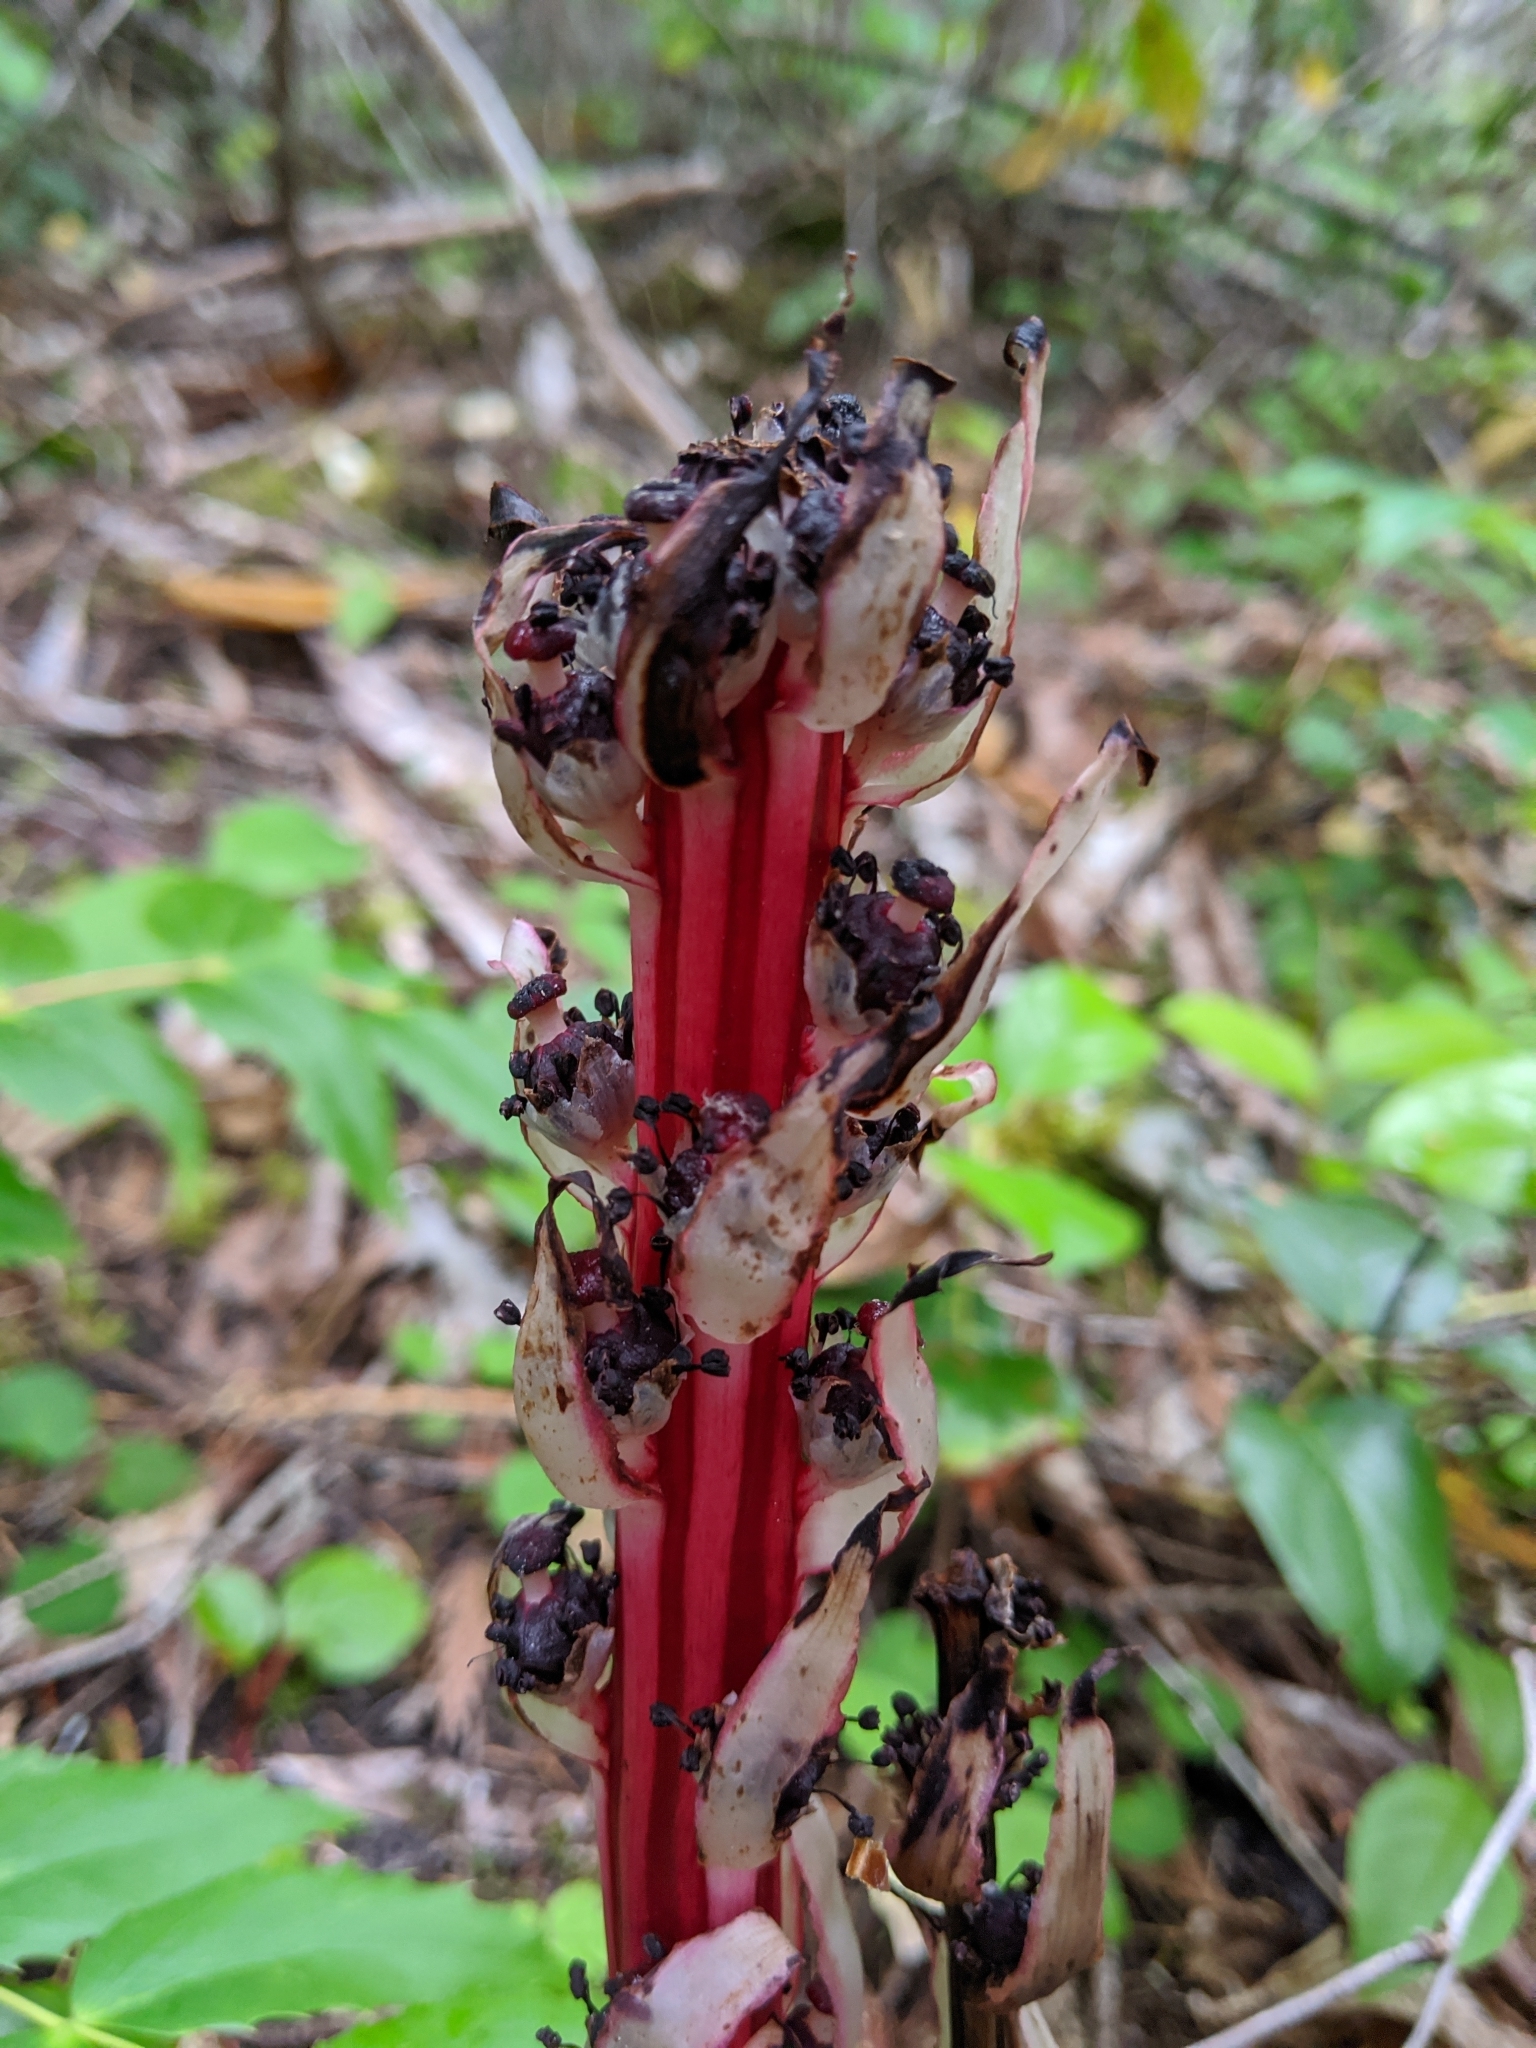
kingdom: Plantae
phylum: Tracheophyta
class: Magnoliopsida
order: Ericales
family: Ericaceae
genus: Allotropa
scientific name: Allotropa virgata
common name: Candy-striped allotropa
